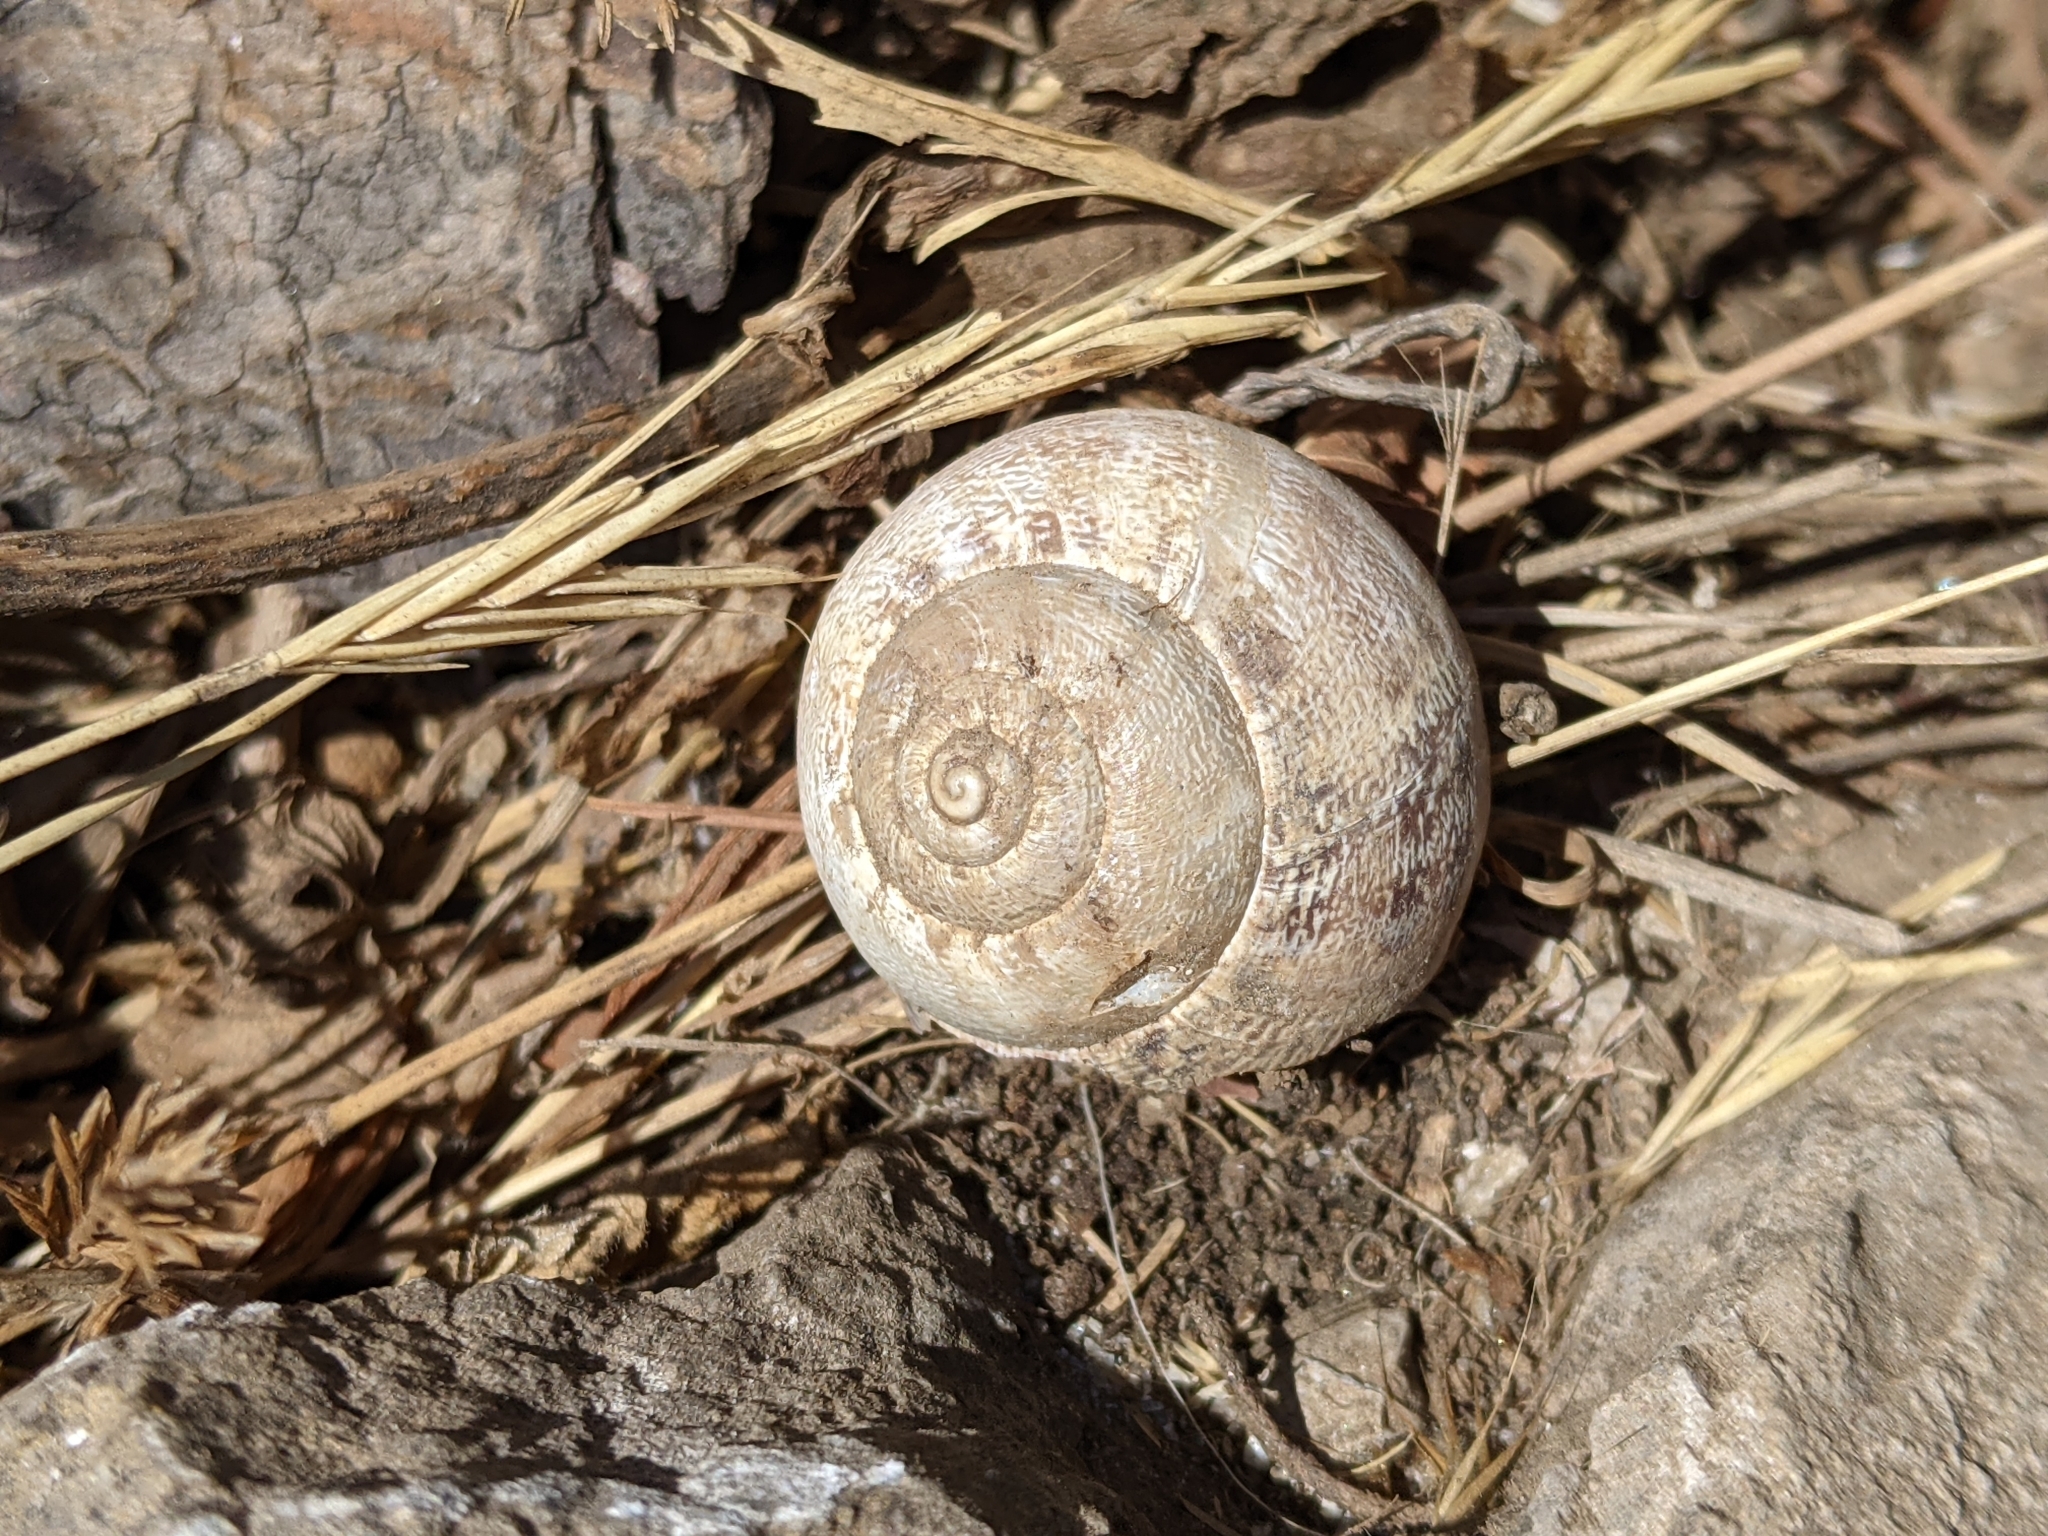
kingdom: Animalia
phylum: Mollusca
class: Gastropoda
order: Stylommatophora
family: Helicidae
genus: Eobania
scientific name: Eobania vermiculata
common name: Chocolateband snail
